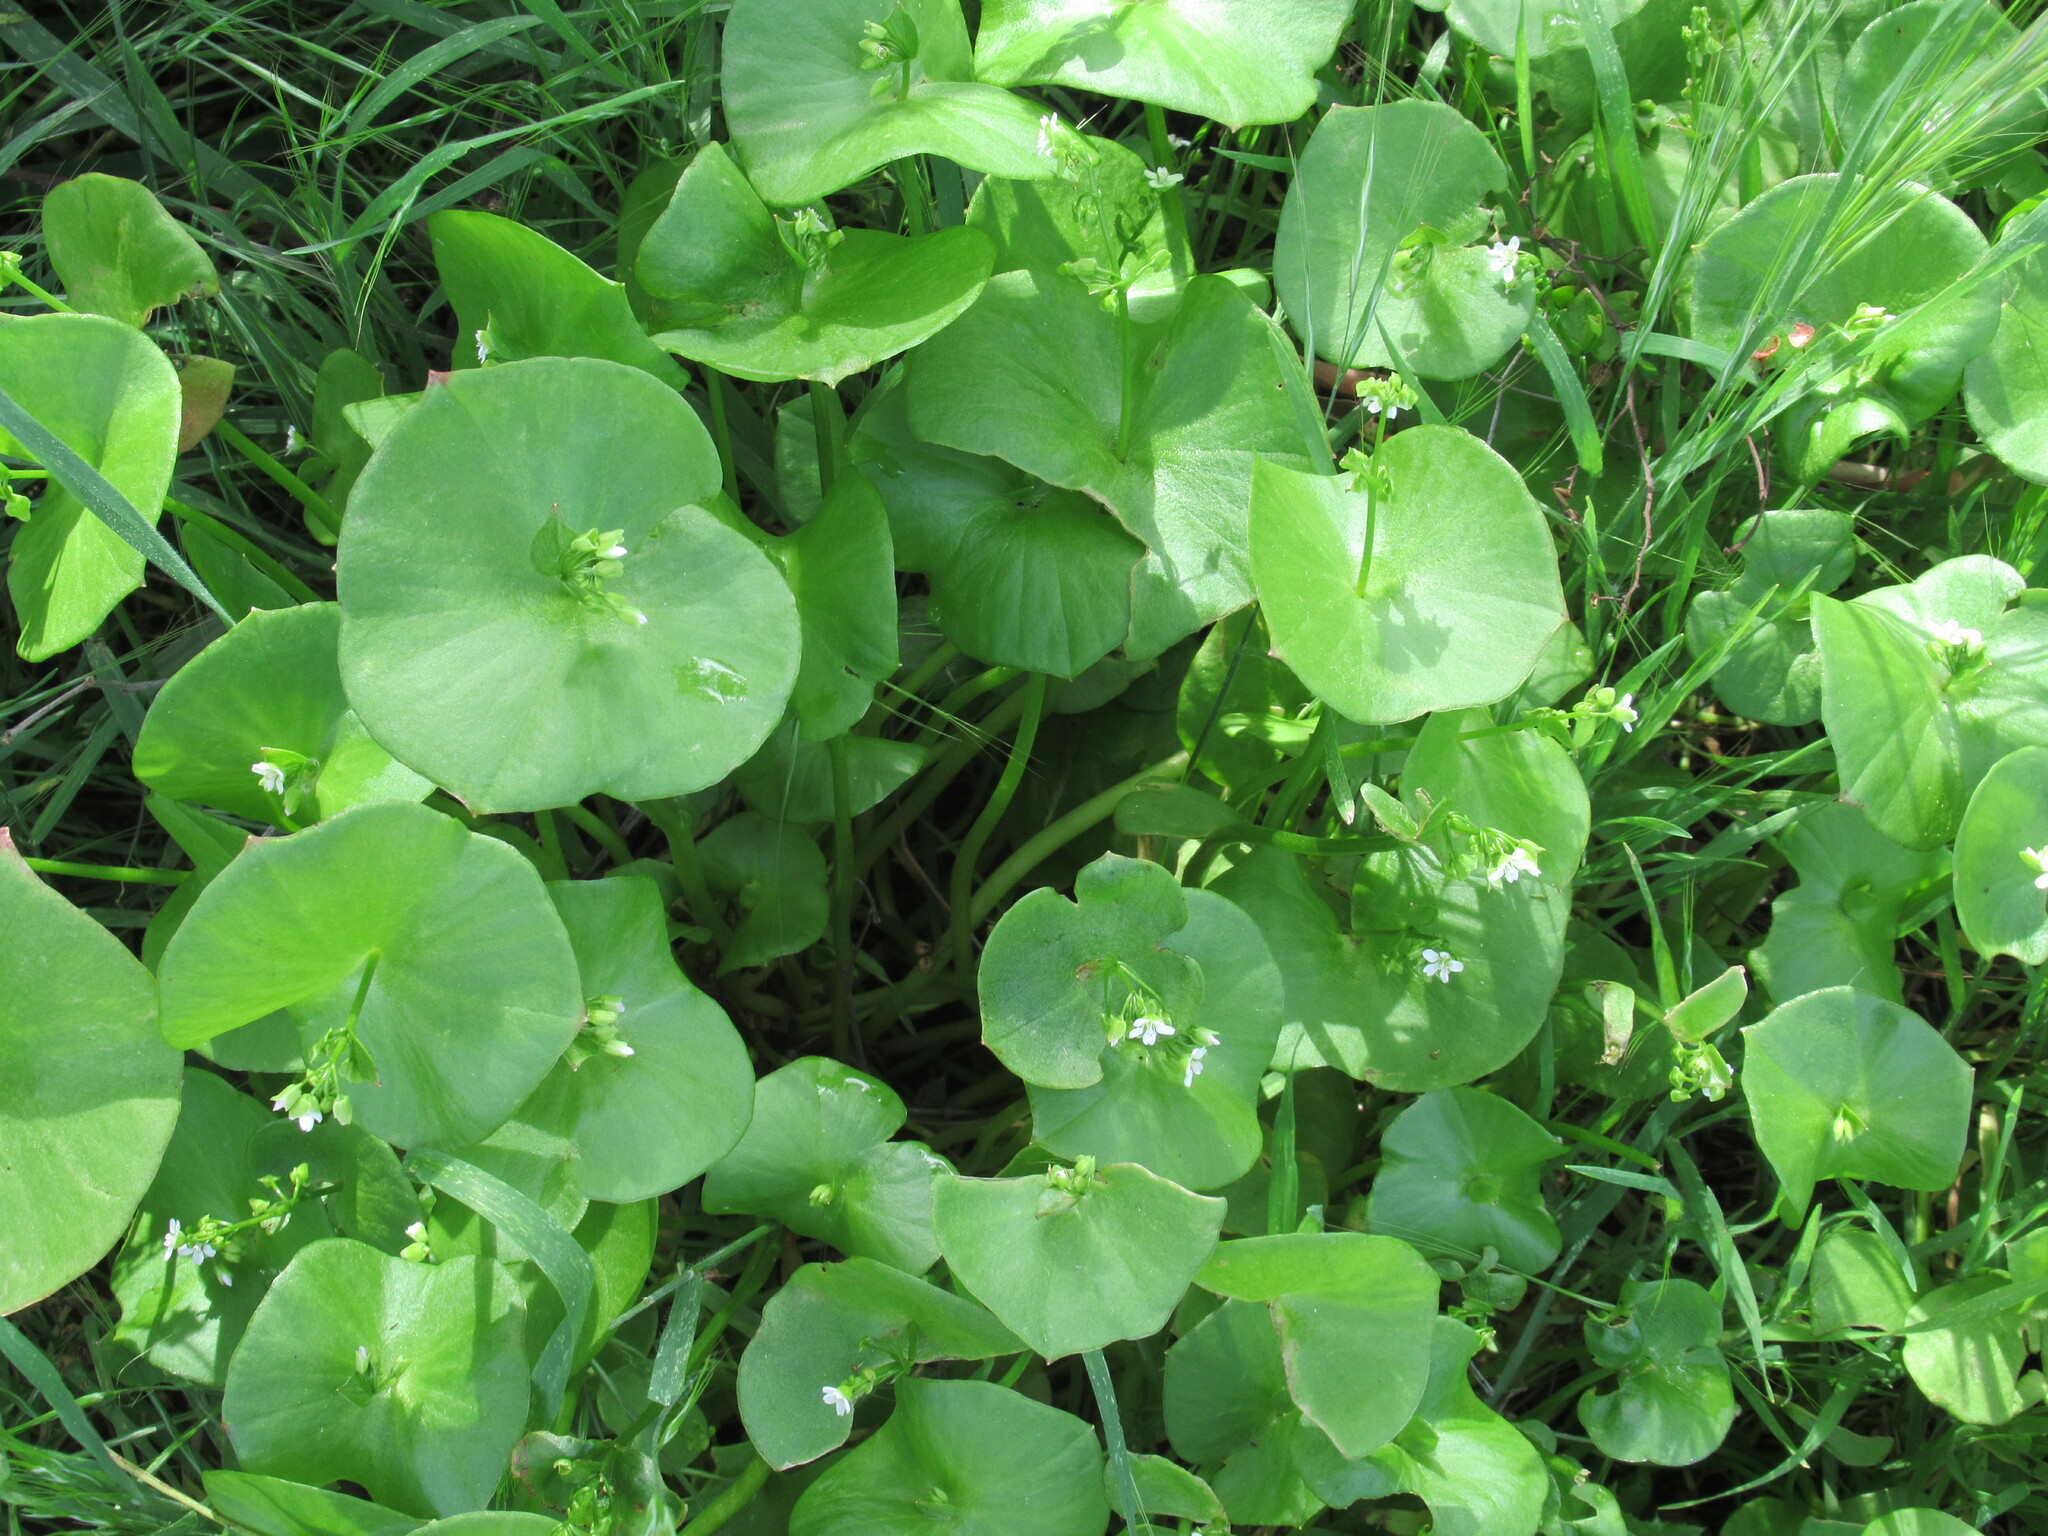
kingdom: Plantae
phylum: Tracheophyta
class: Magnoliopsida
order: Caryophyllales
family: Montiaceae
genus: Claytonia
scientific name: Claytonia perfoliata
